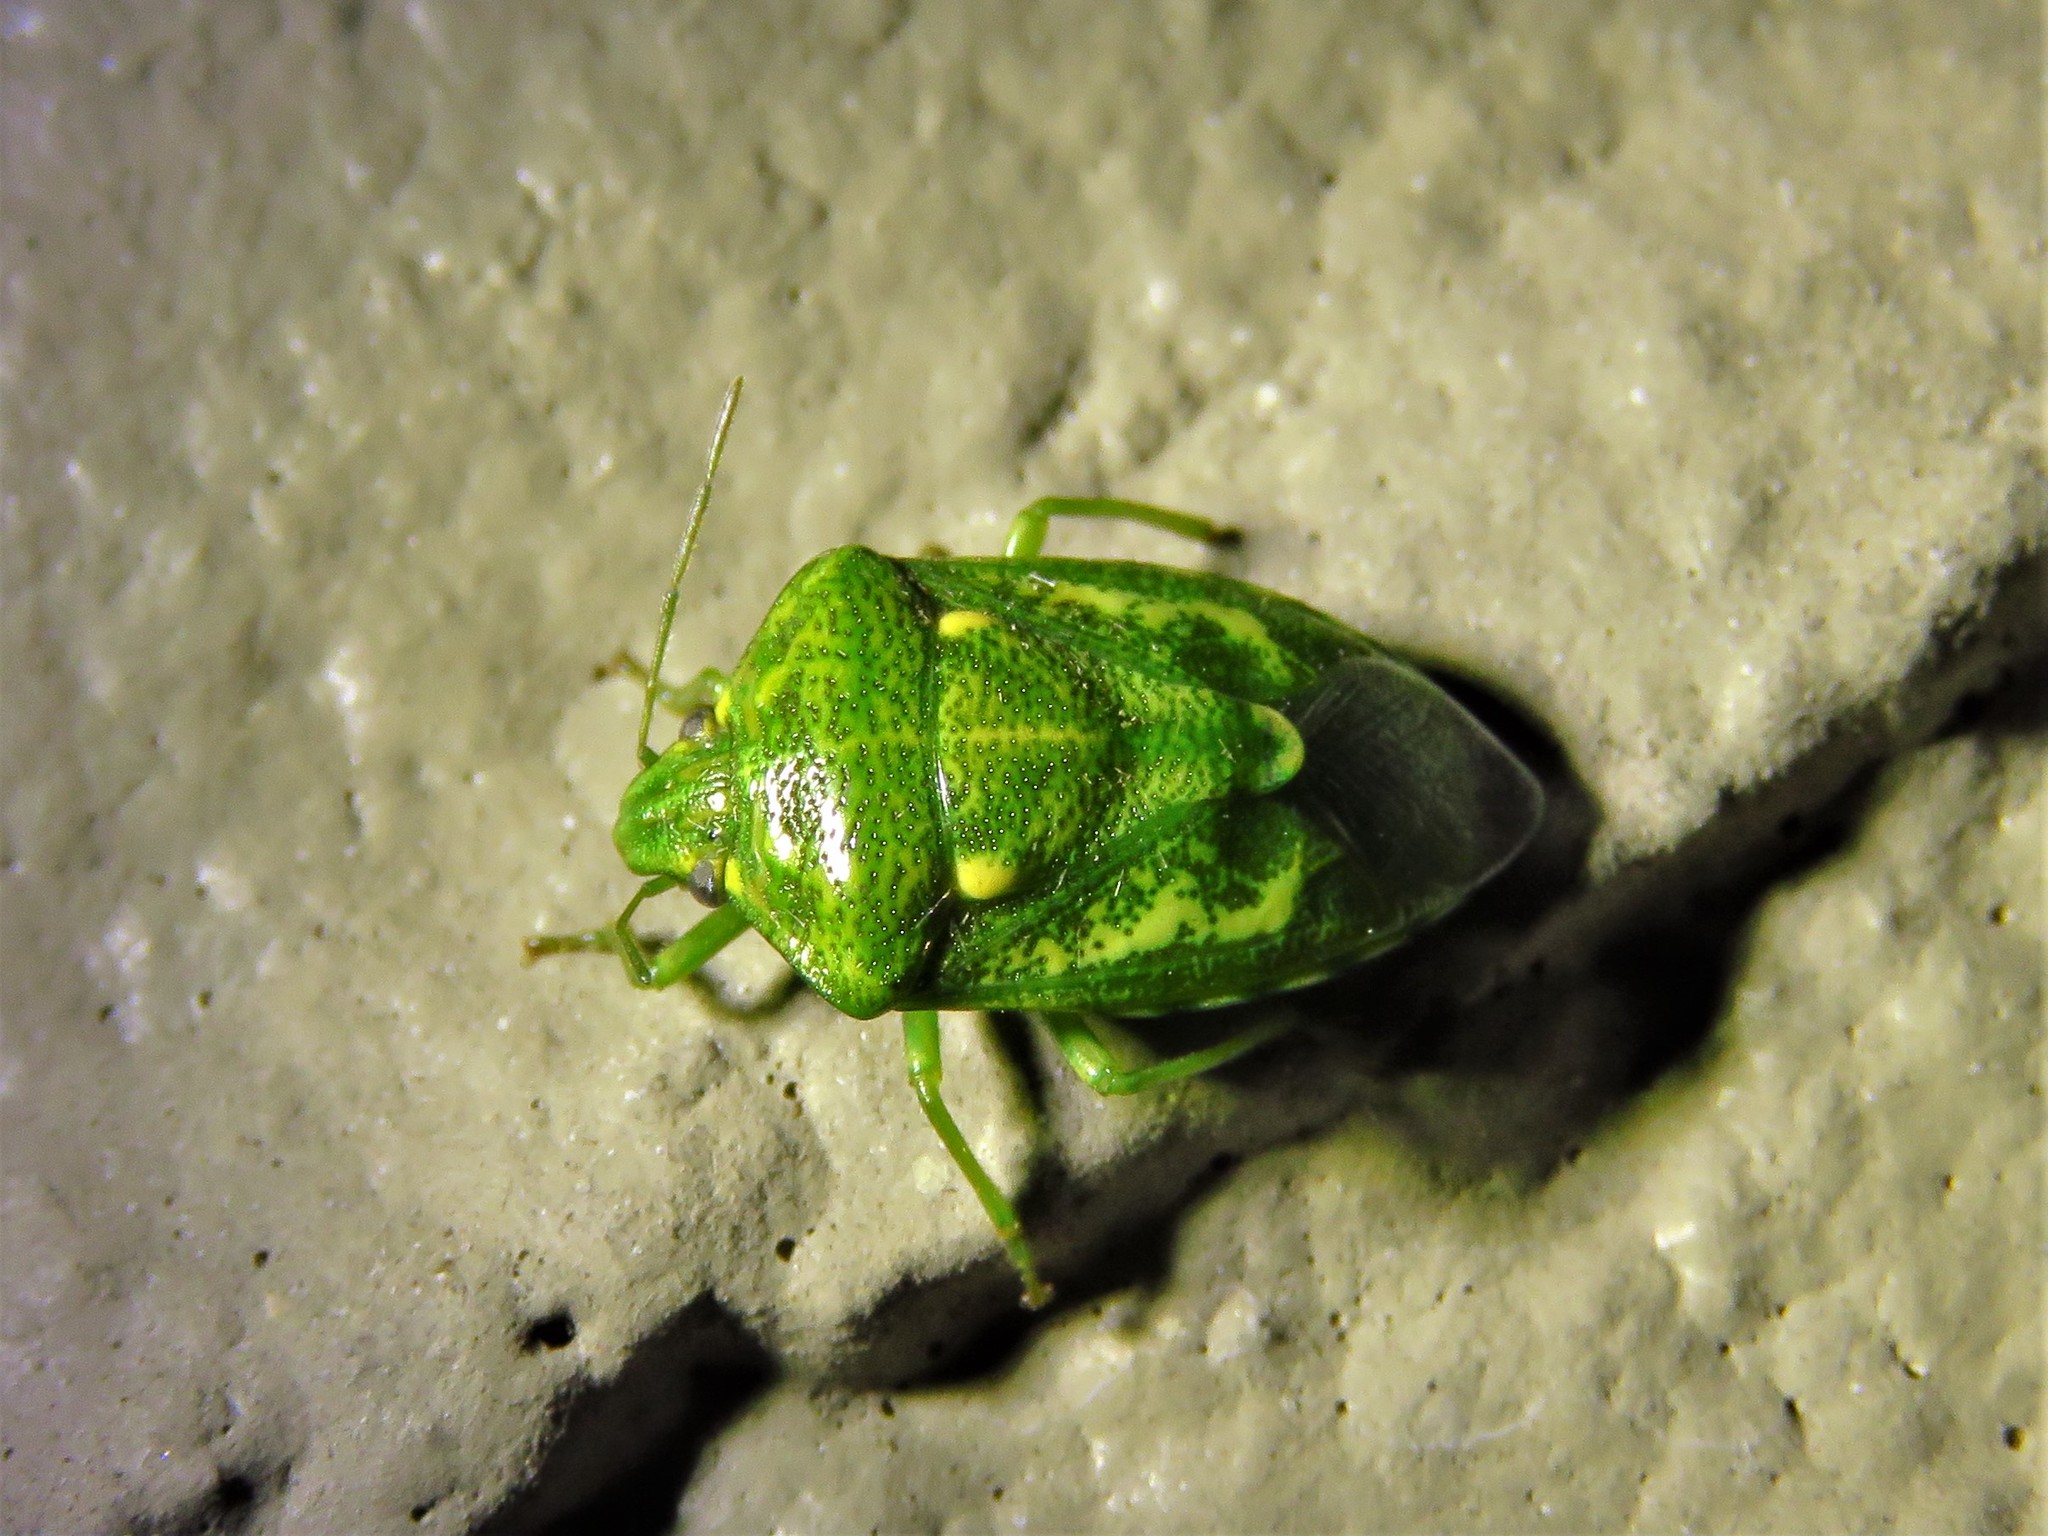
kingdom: Animalia
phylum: Arthropoda
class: Insecta
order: Hemiptera
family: Pentatomidae
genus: Banasa
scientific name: Banasa euchlora
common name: Cedar berry bug
